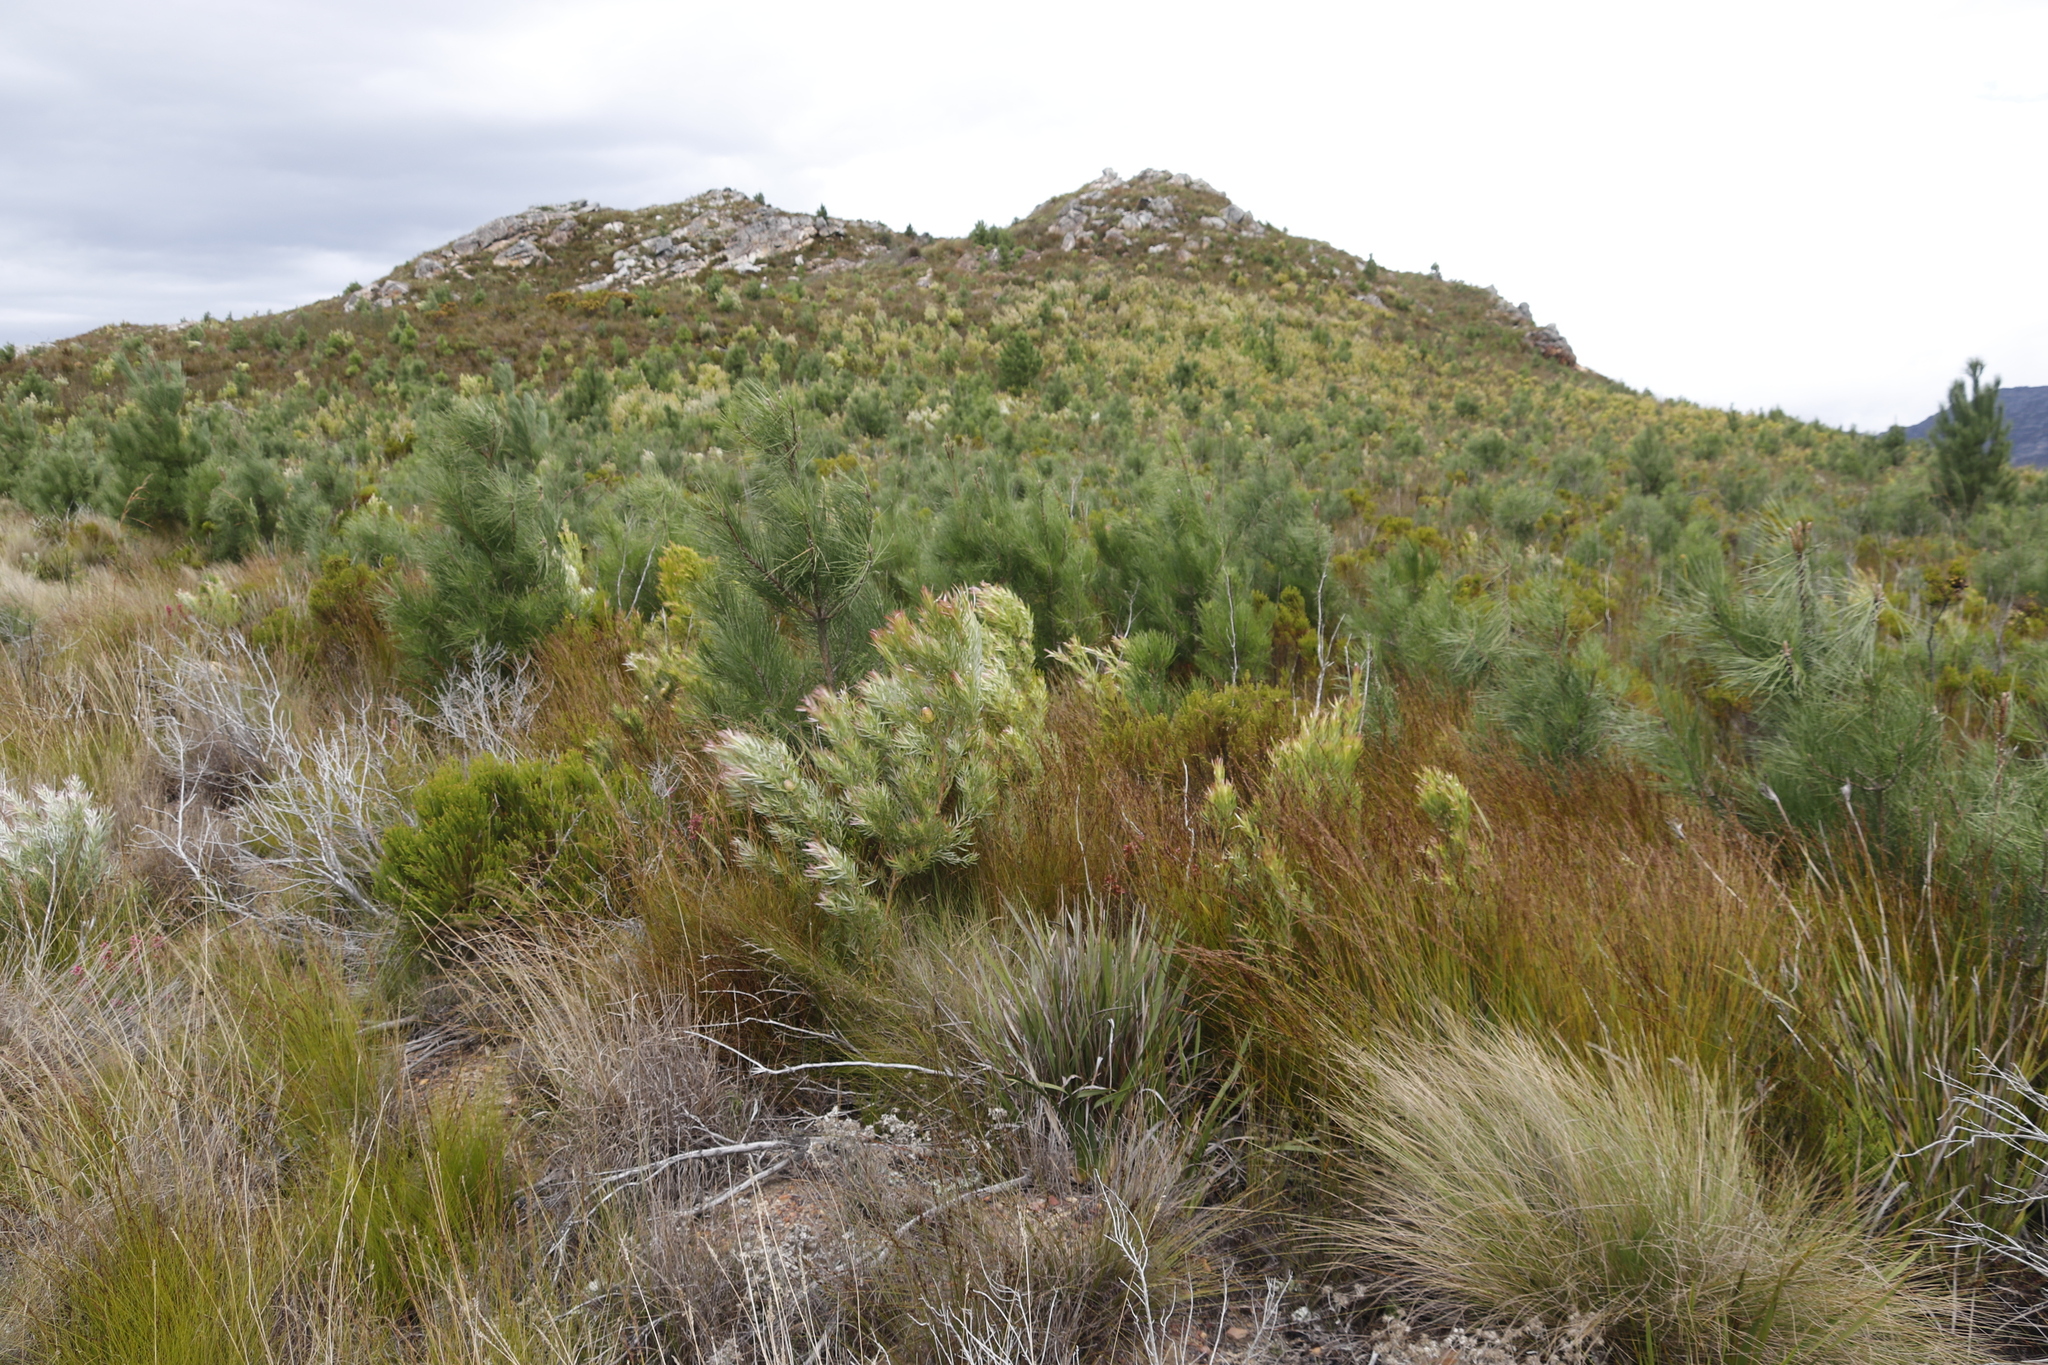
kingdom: Plantae
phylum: Tracheophyta
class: Magnoliopsida
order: Proteales
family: Proteaceae
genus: Leucadendron
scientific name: Leucadendron xanthoconus
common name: Sickle-leaf conebush
